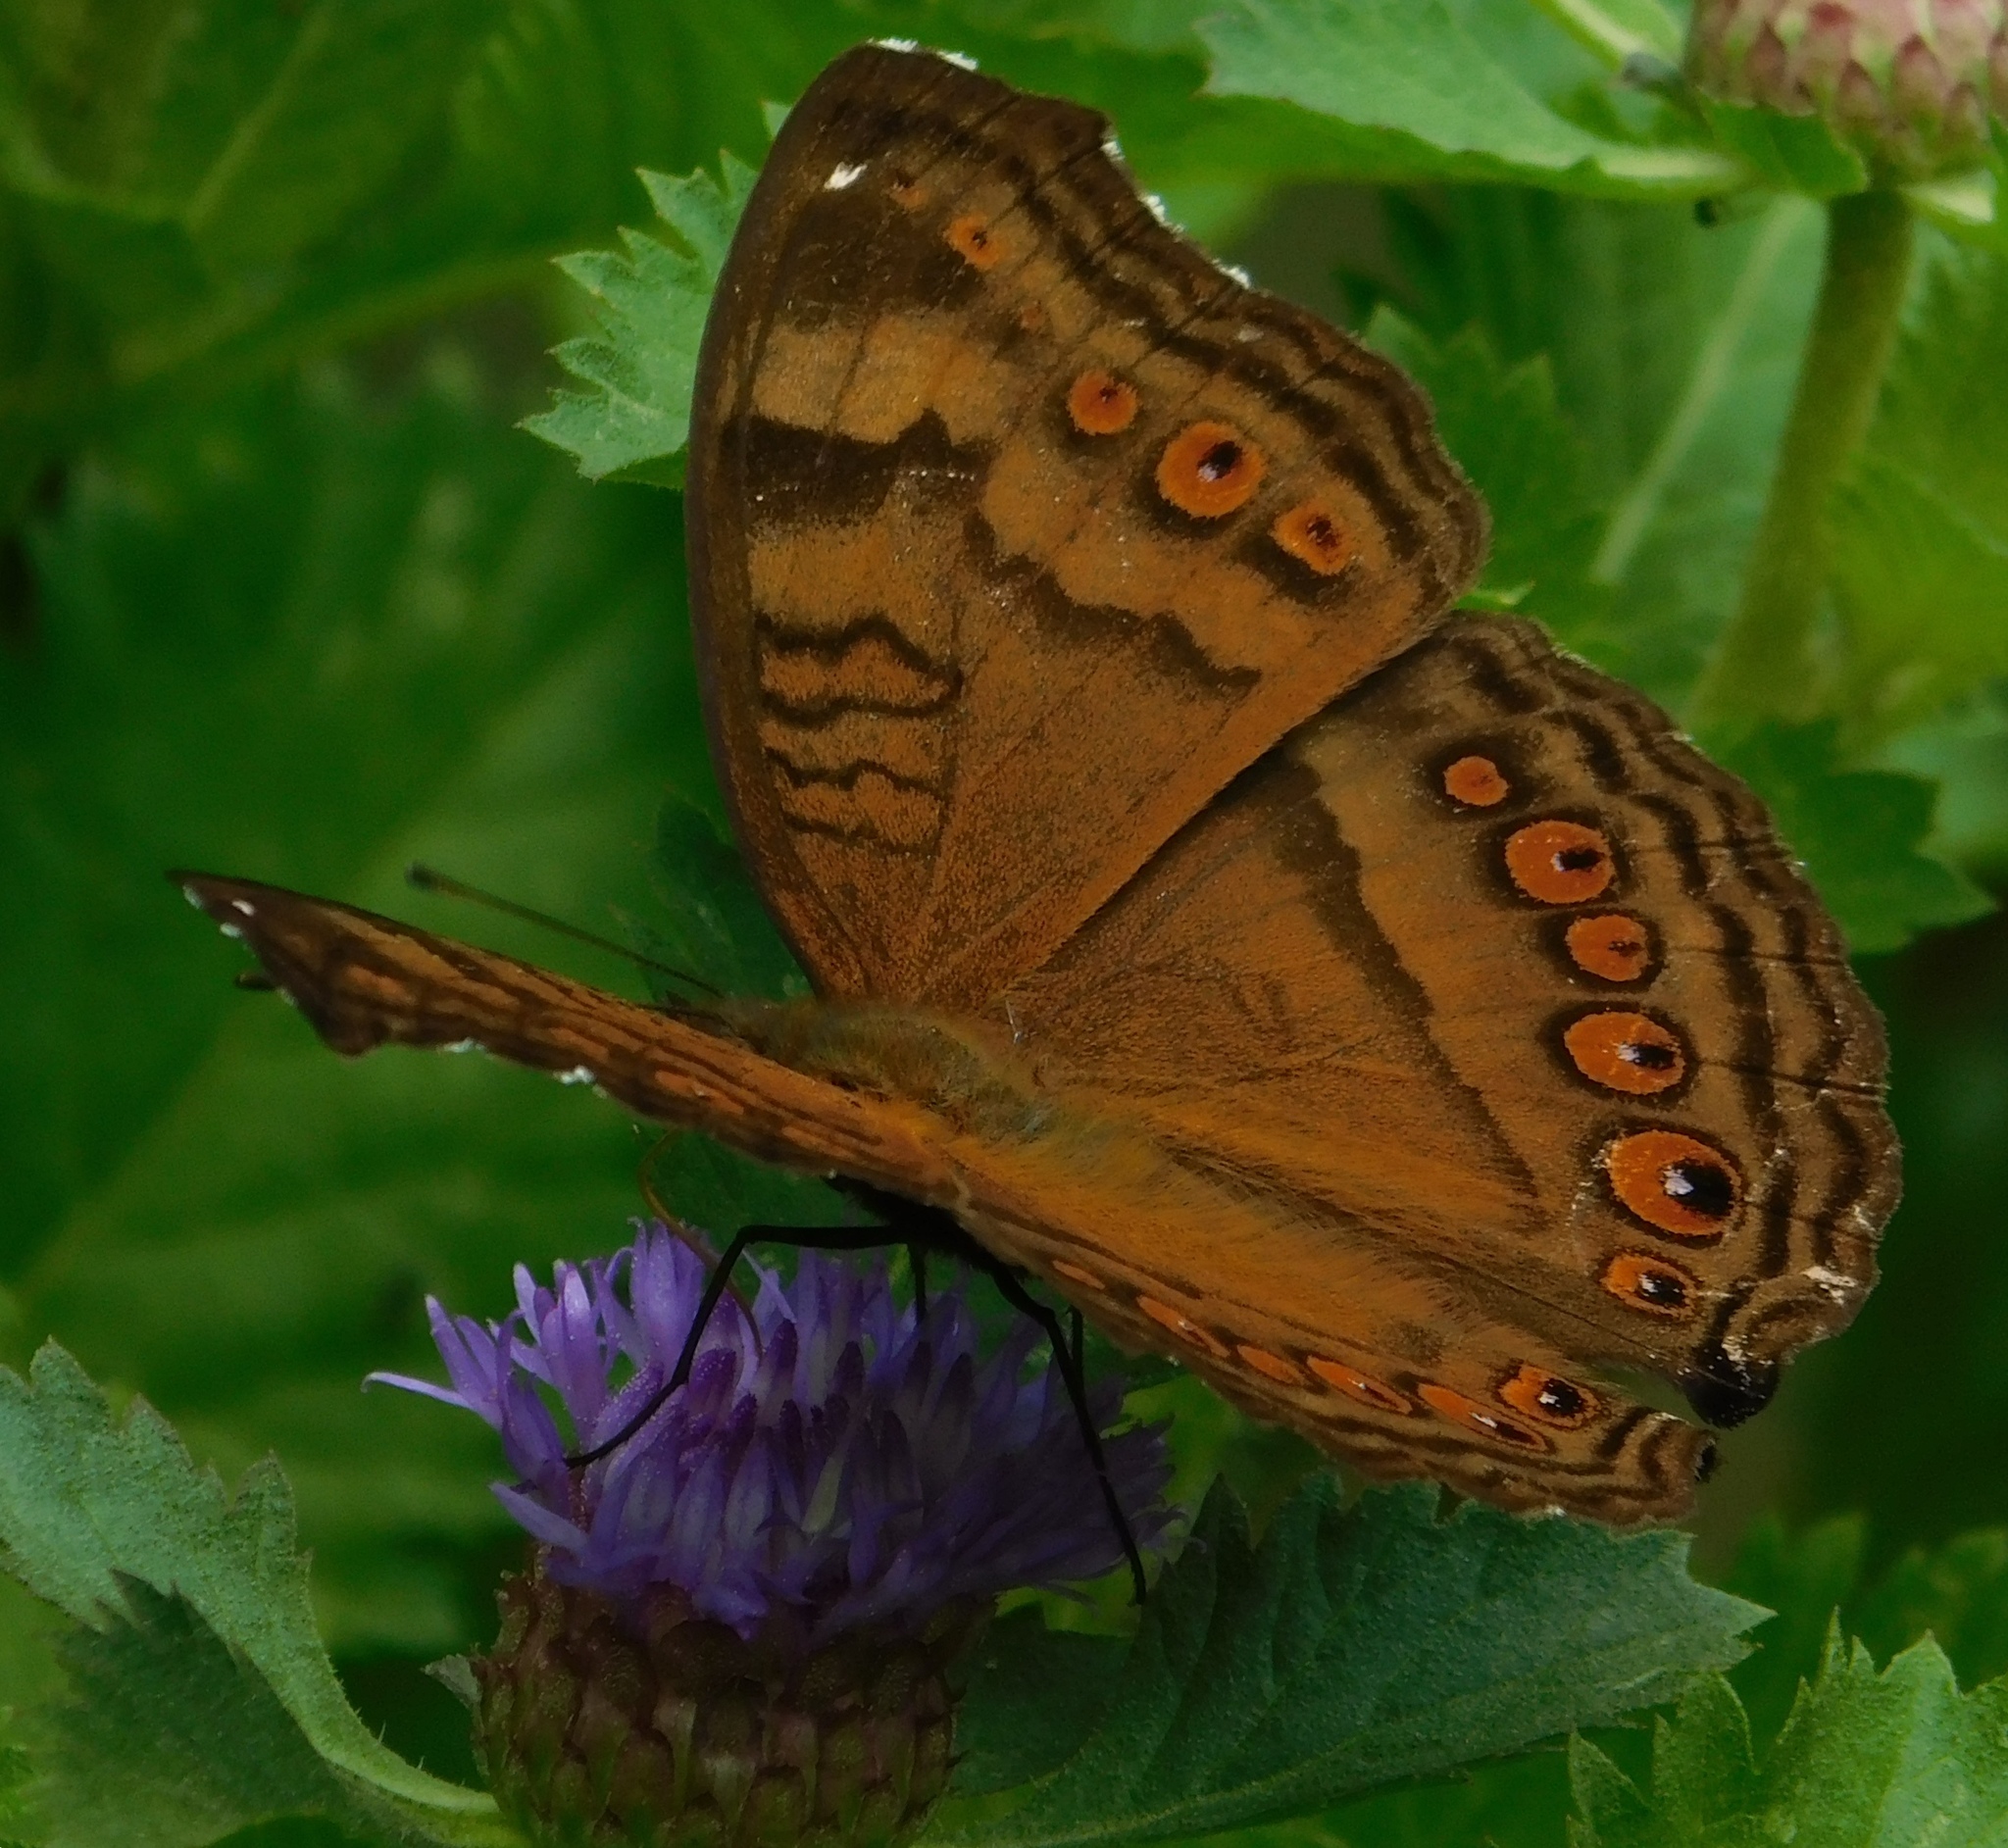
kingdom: Animalia
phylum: Arthropoda
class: Insecta
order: Lepidoptera
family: Nymphalidae
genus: Junonia
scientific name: Junonia hedonia
